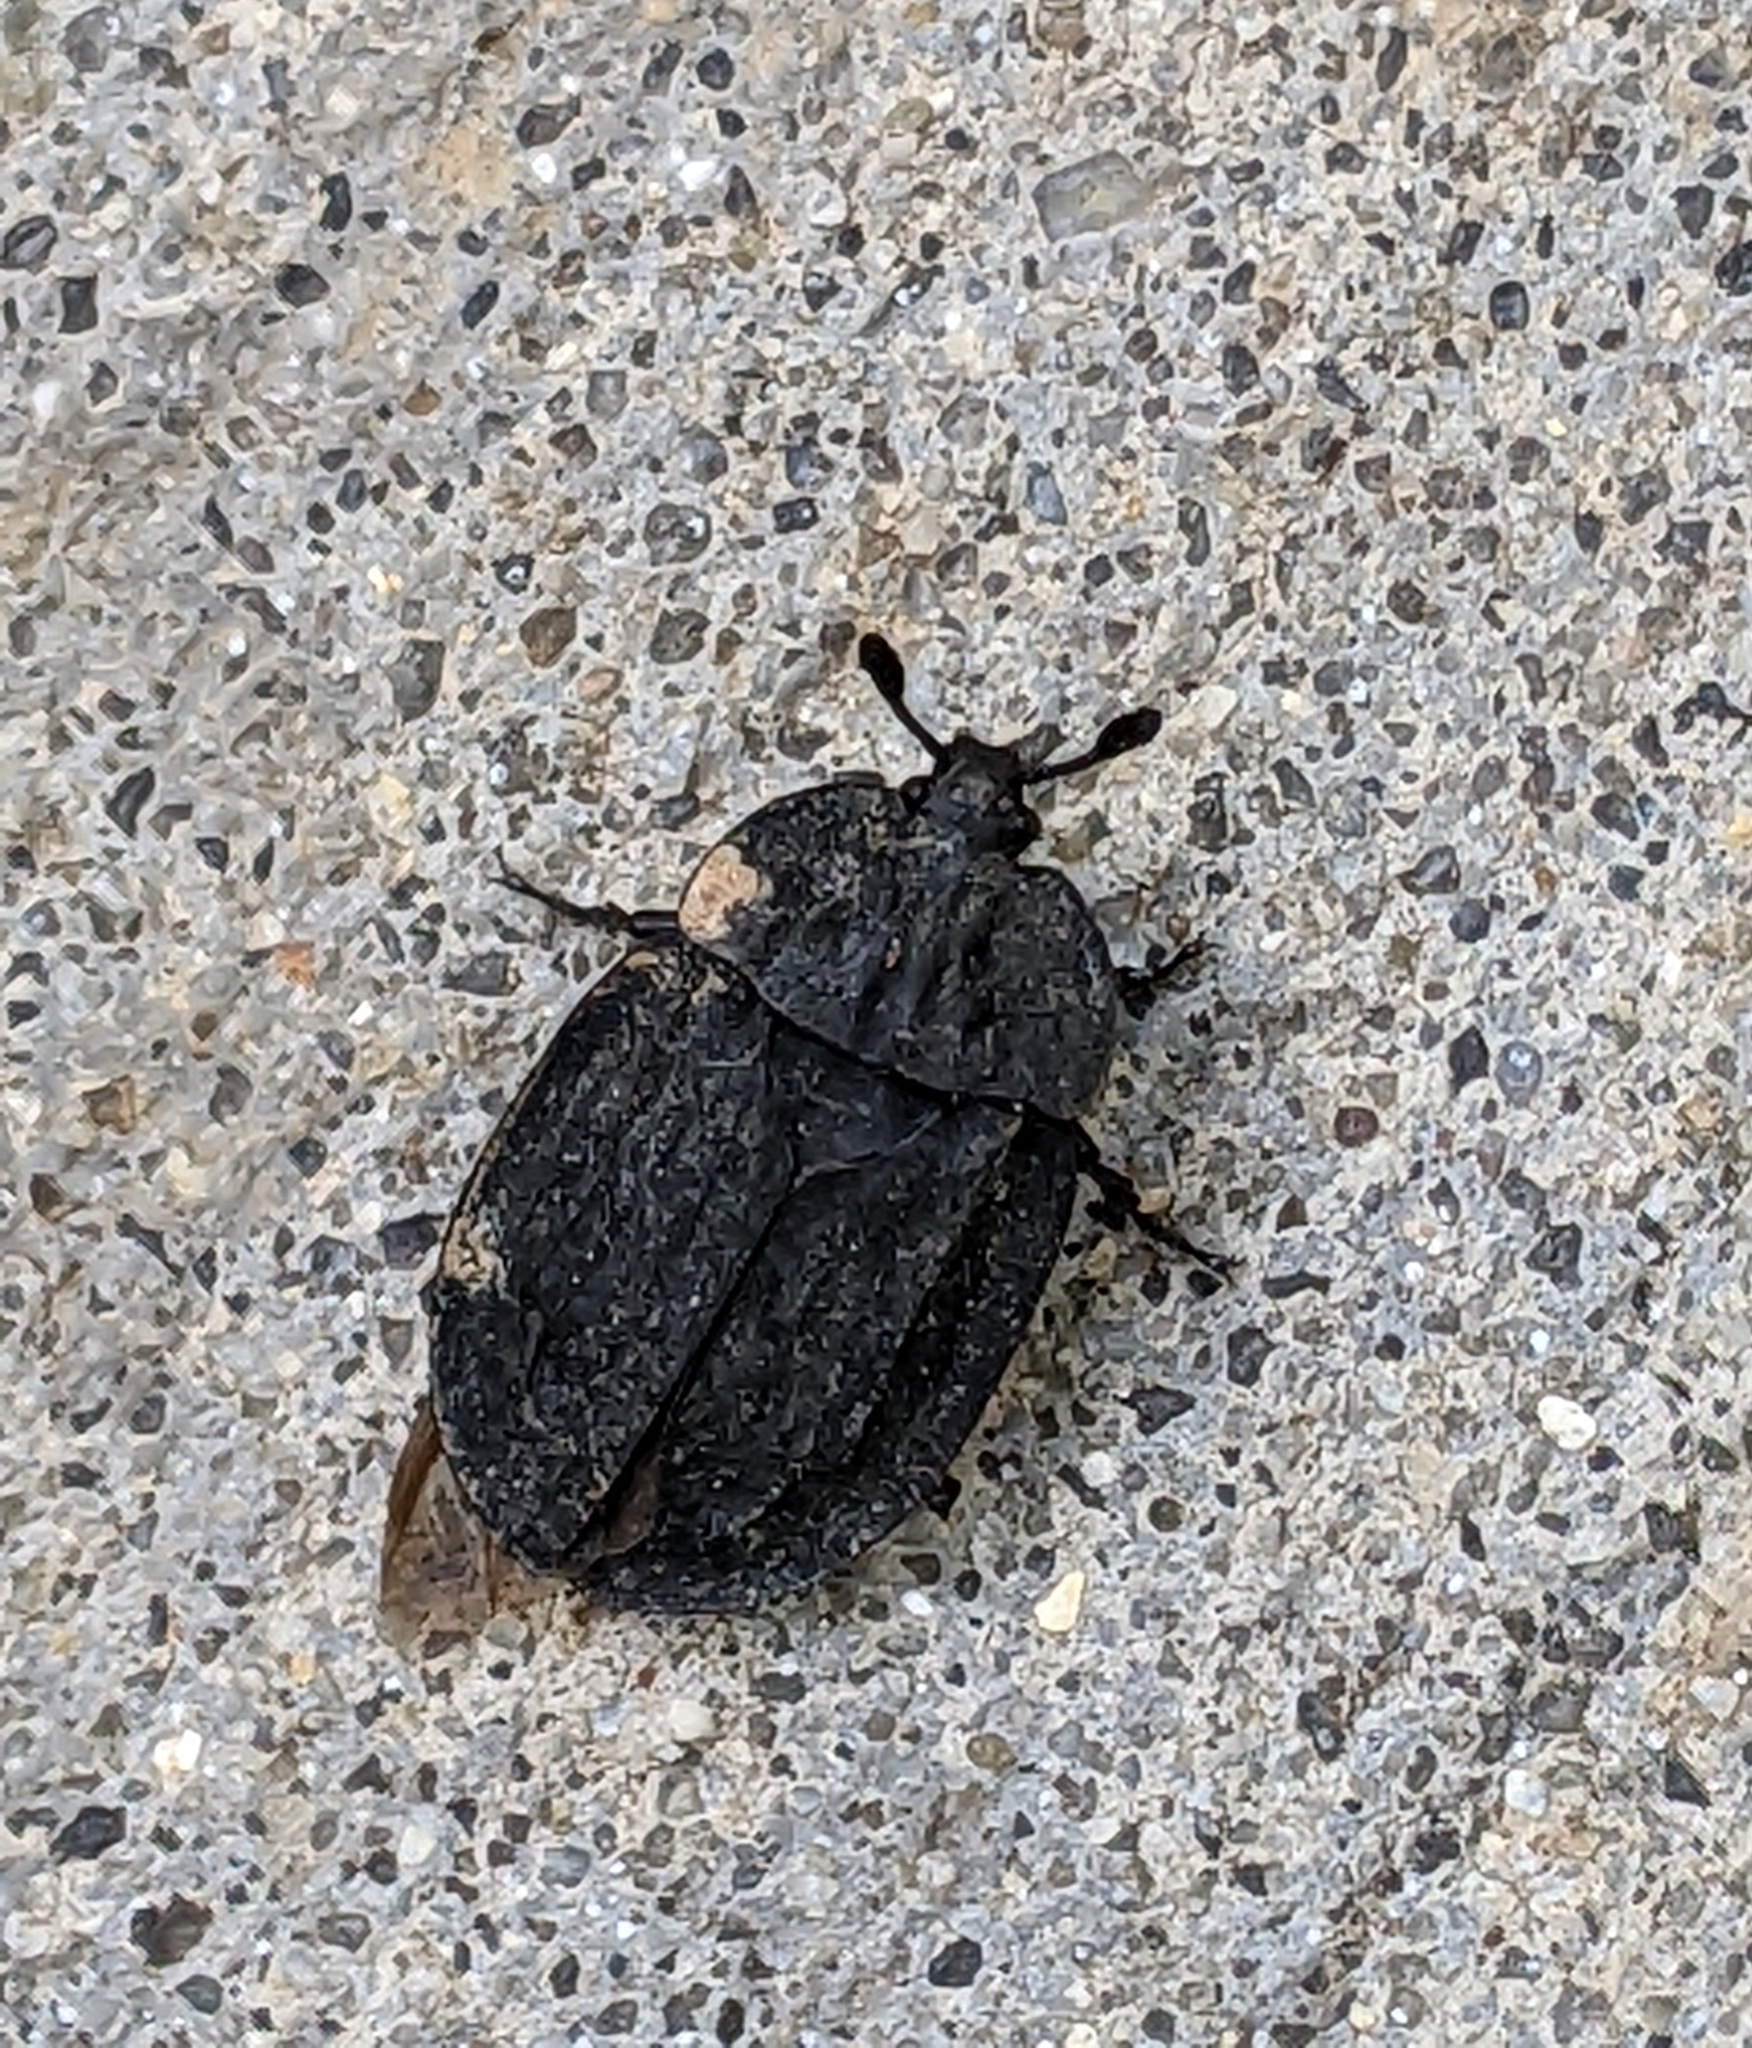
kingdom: Animalia
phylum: Arthropoda
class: Insecta
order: Coleoptera
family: Staphylinidae
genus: Oiceoptoma
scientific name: Oiceoptoma inaequale
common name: Ridged carrion beetle
